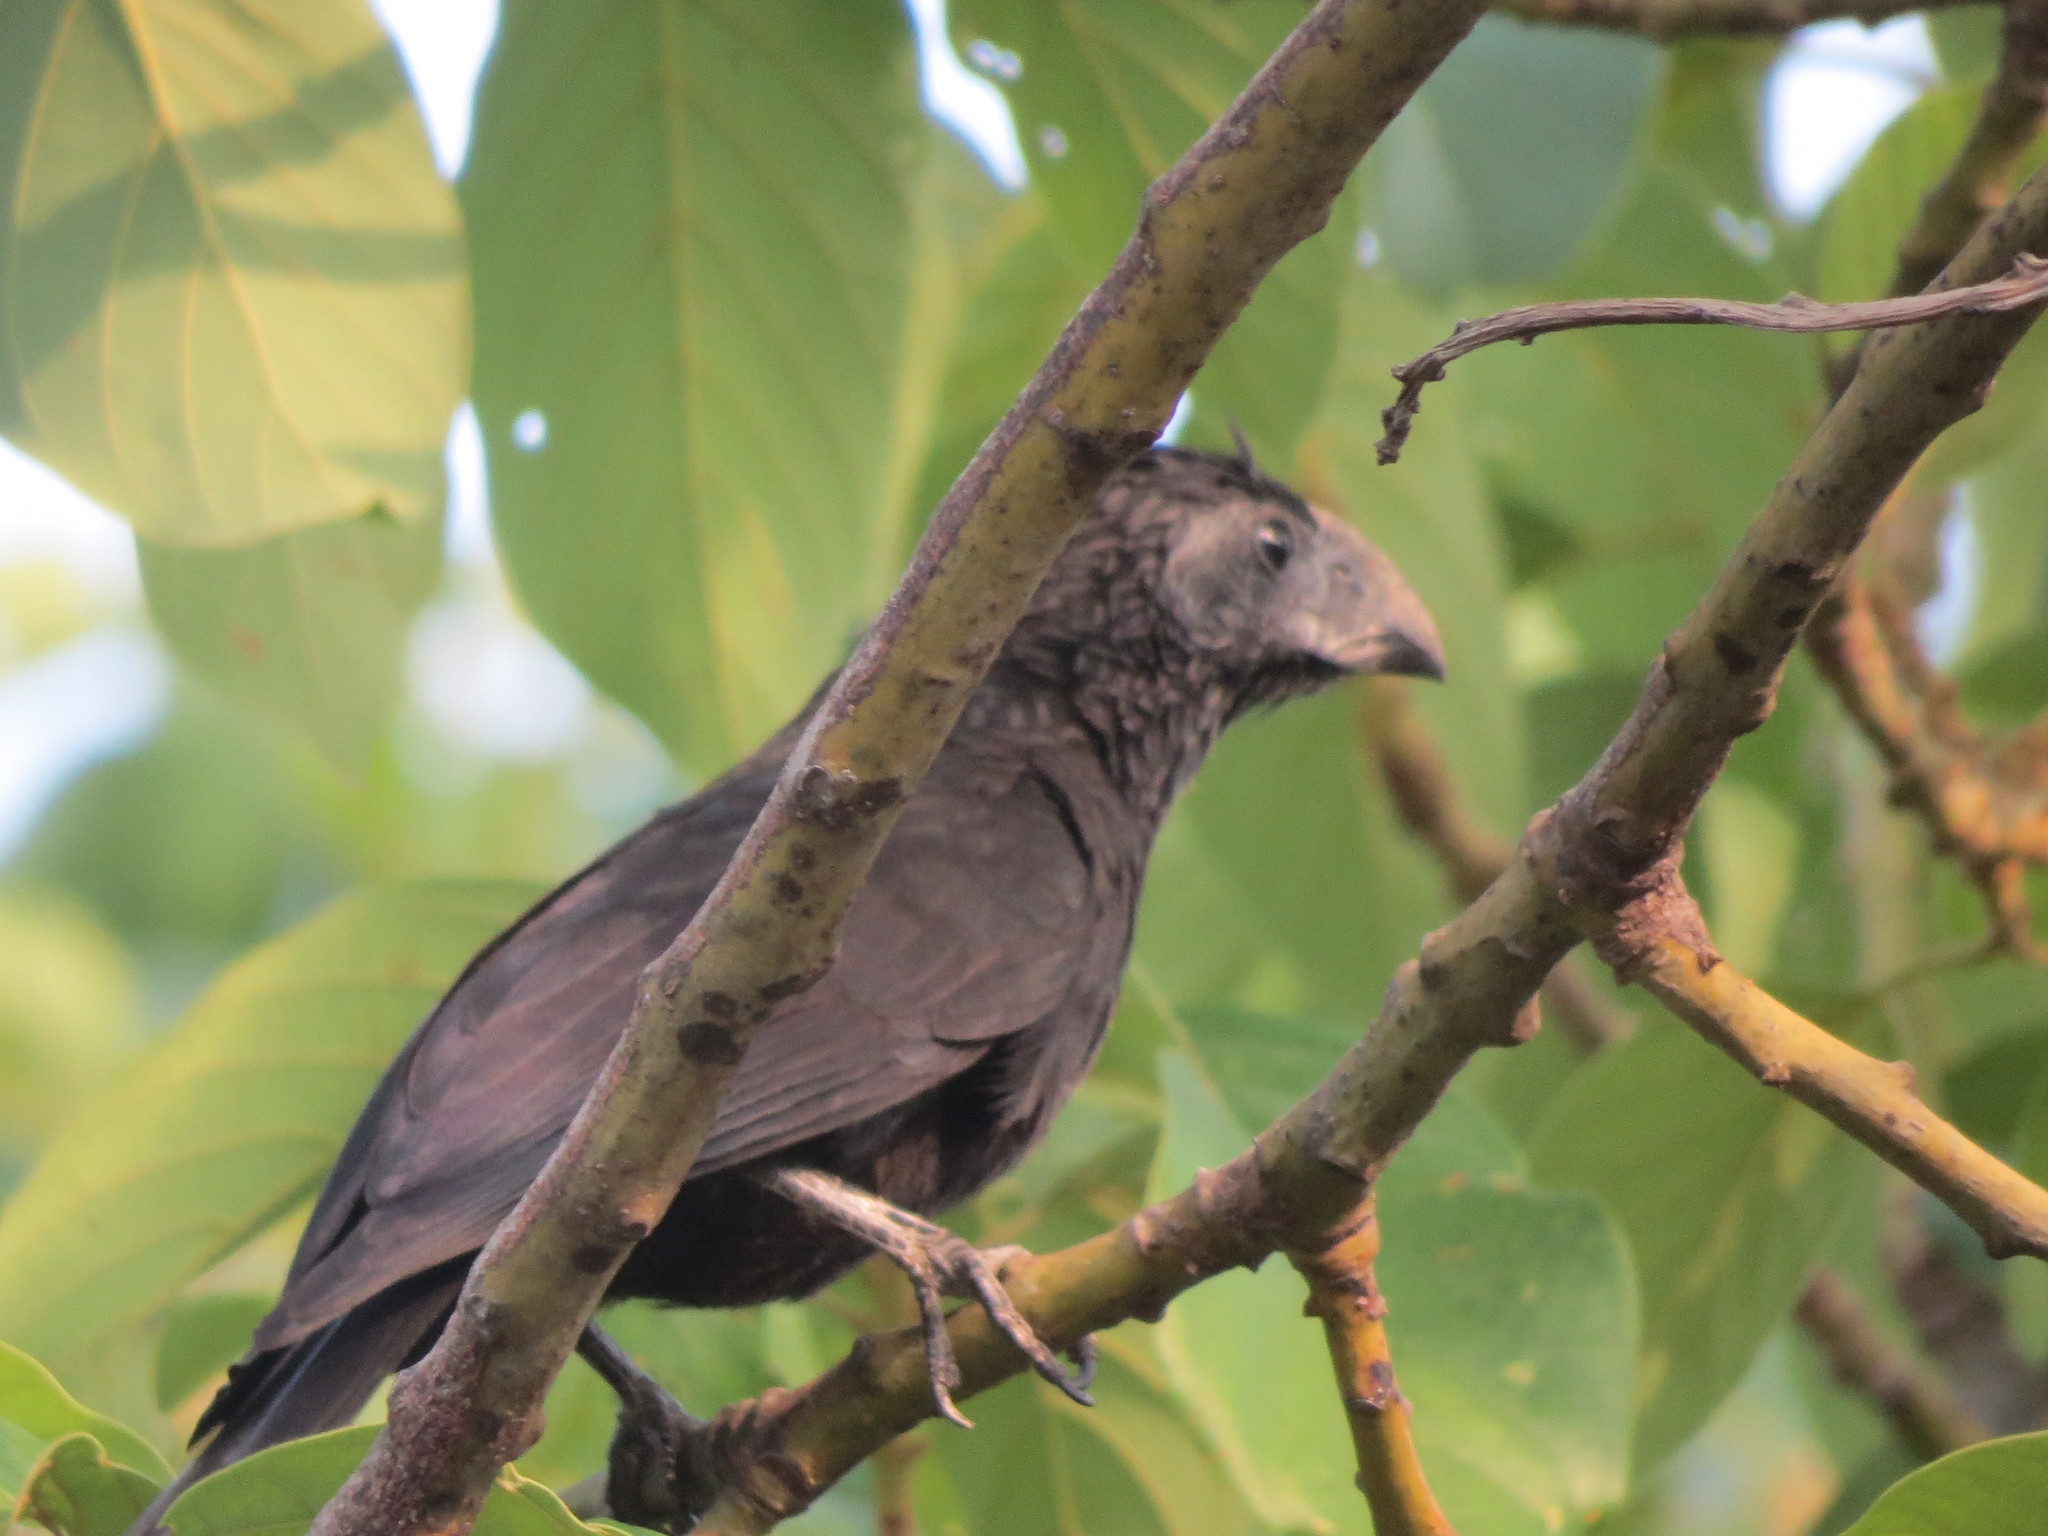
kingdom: Animalia
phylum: Chordata
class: Aves
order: Cuculiformes
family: Cuculidae
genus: Crotophaga
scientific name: Crotophaga sulcirostris
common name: Groove-billed ani
